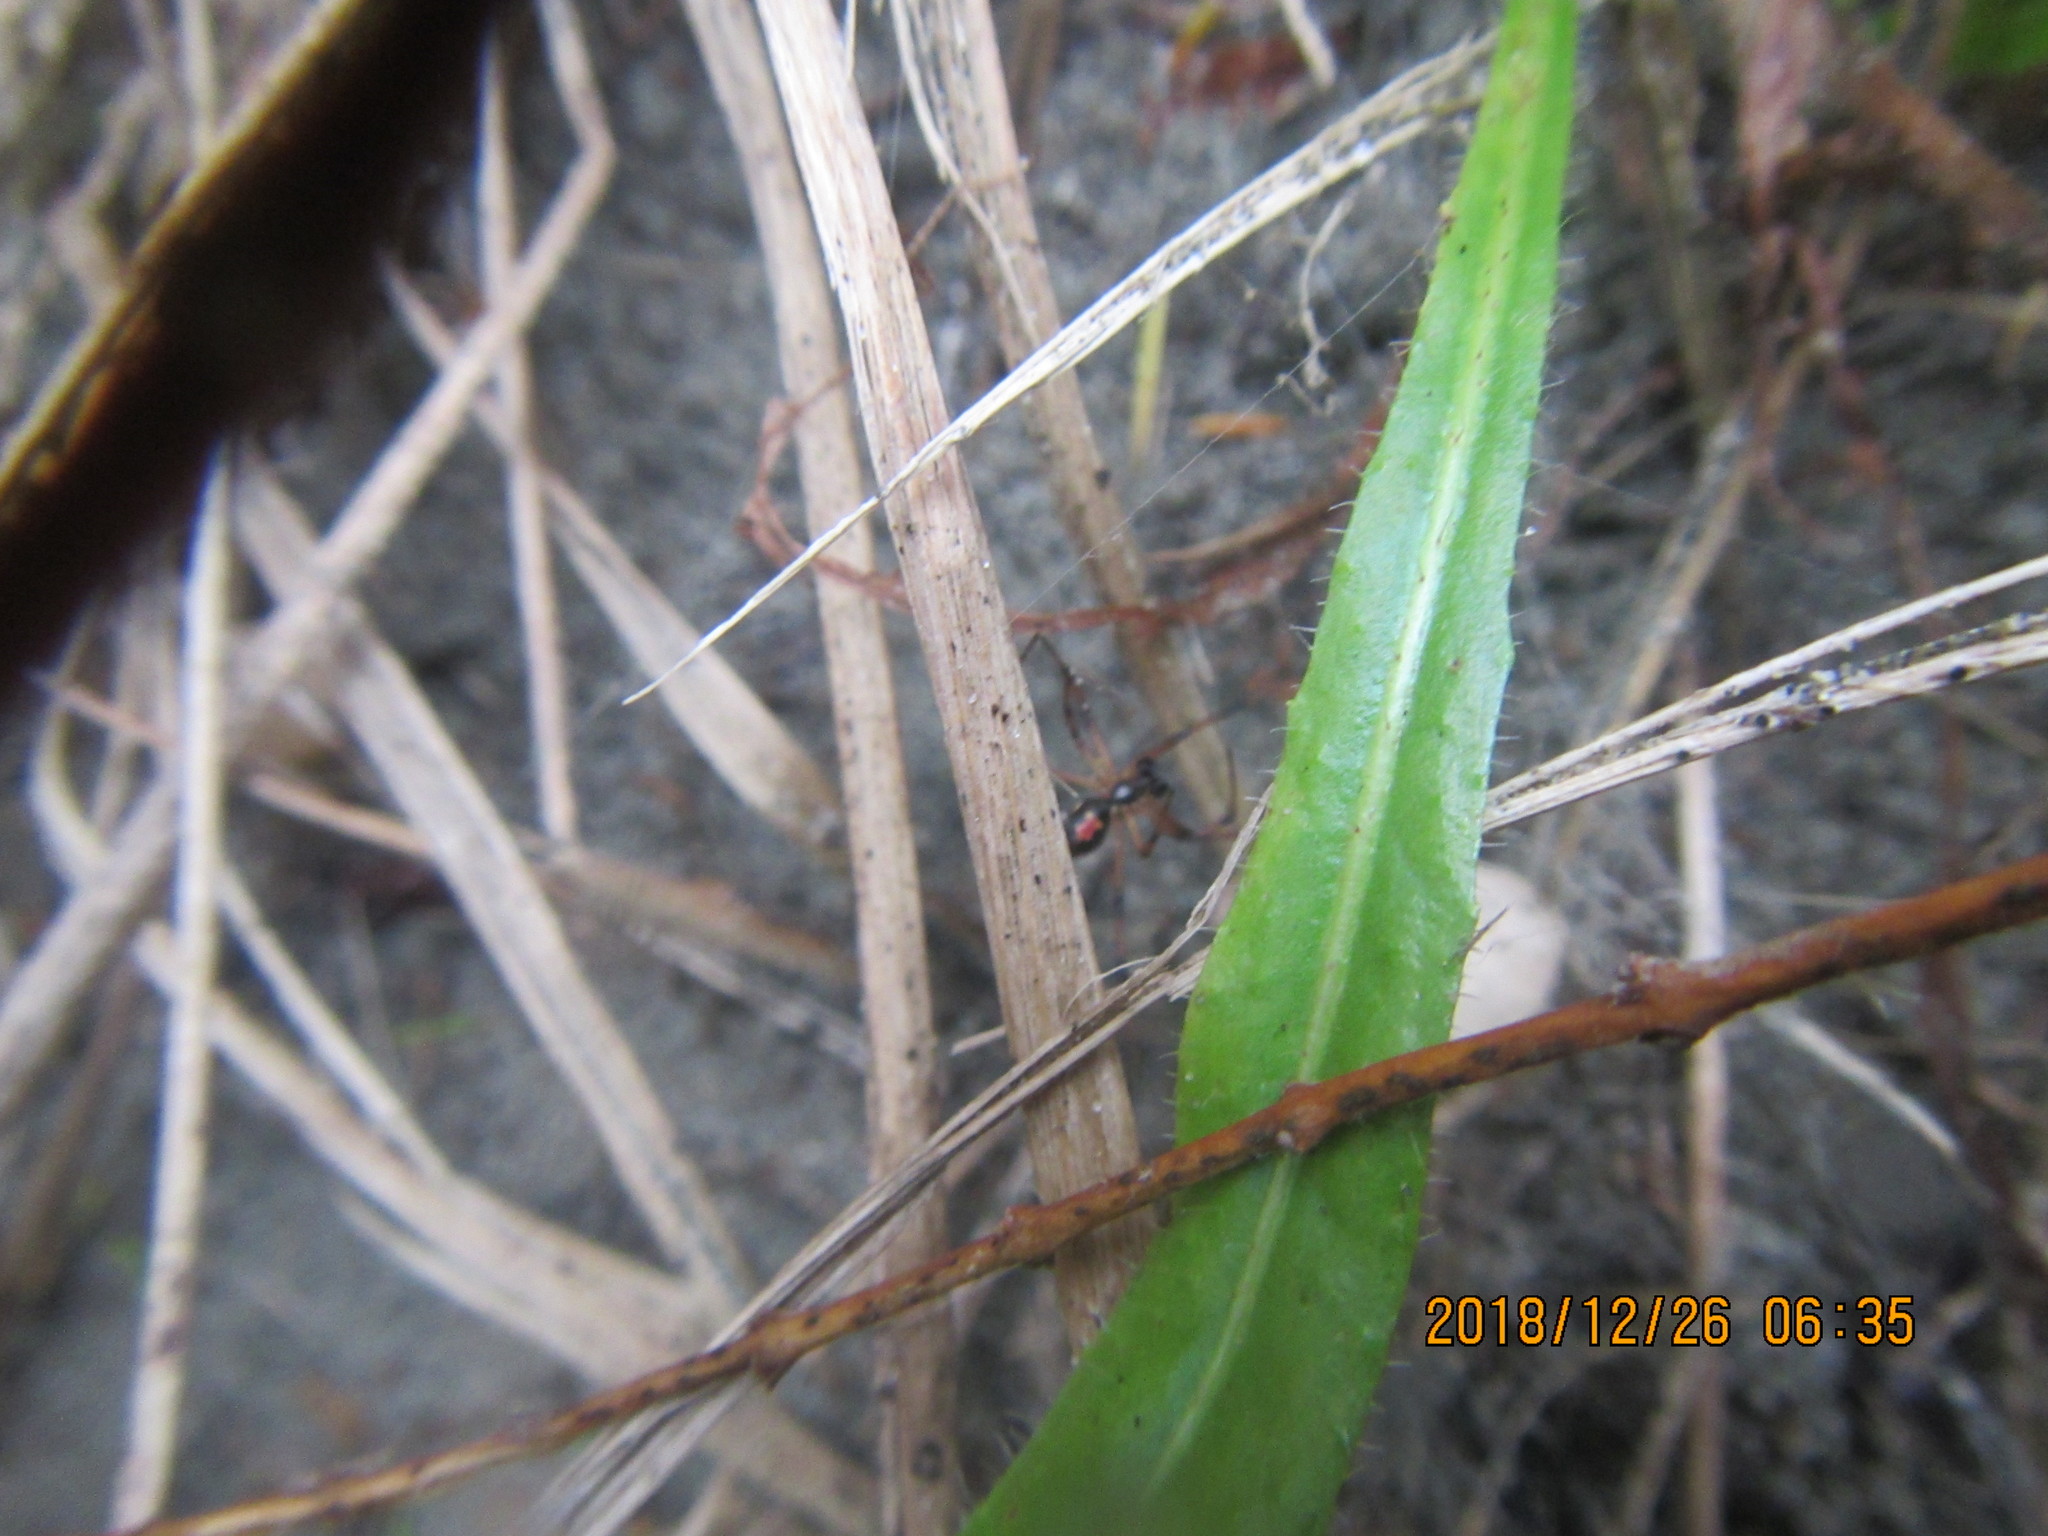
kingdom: Animalia
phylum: Arthropoda
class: Arachnida
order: Araneae
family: Theridiidae
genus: Latrodectus
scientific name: Latrodectus katipo
